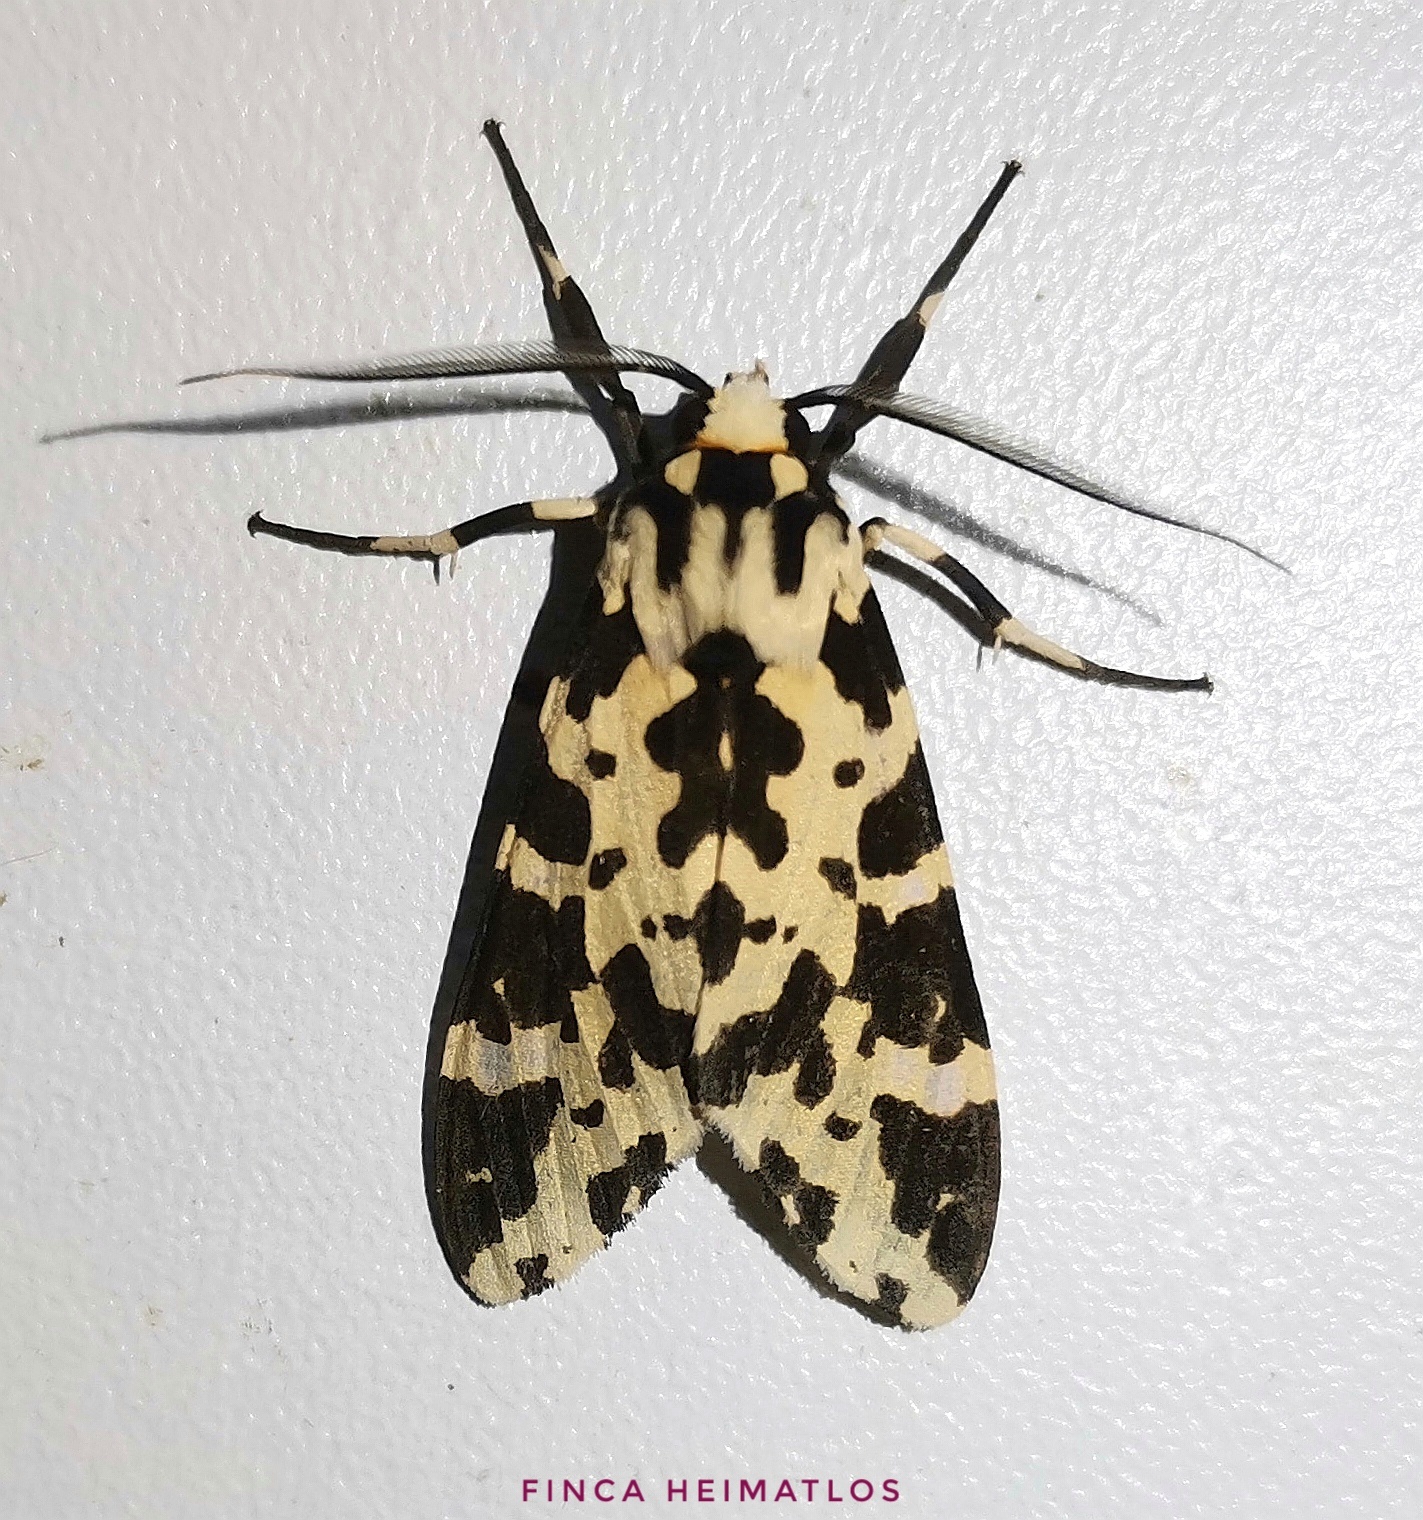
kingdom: Animalia
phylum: Arthropoda
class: Insecta
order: Lepidoptera
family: Erebidae
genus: Eucereon
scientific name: Eucereon consorta
